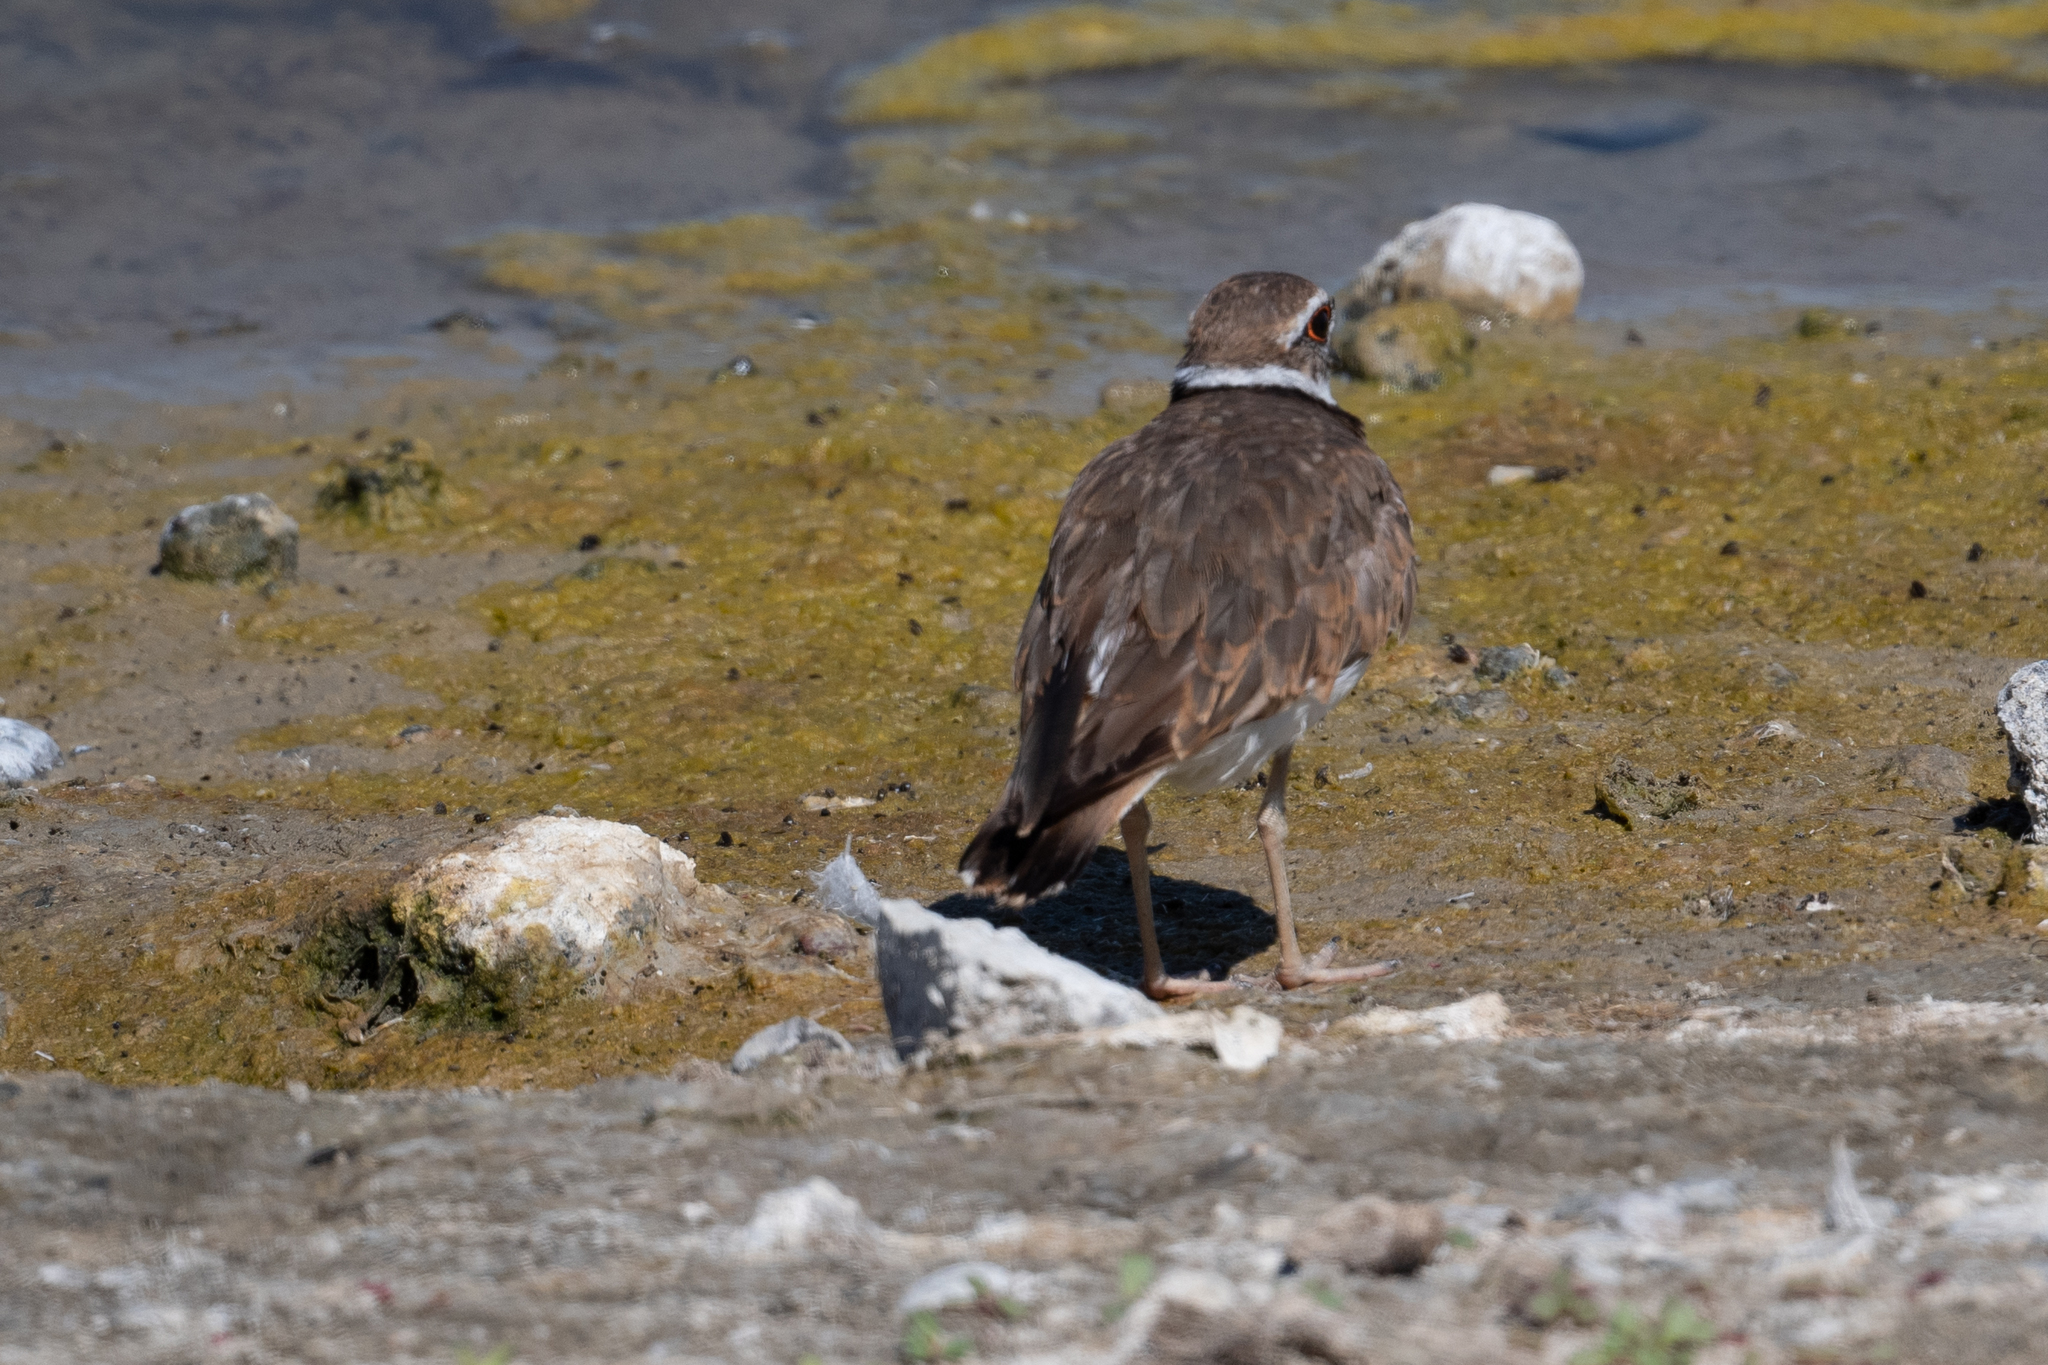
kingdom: Animalia
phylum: Chordata
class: Aves
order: Charadriiformes
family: Charadriidae
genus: Charadrius
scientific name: Charadrius vociferus
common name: Killdeer
